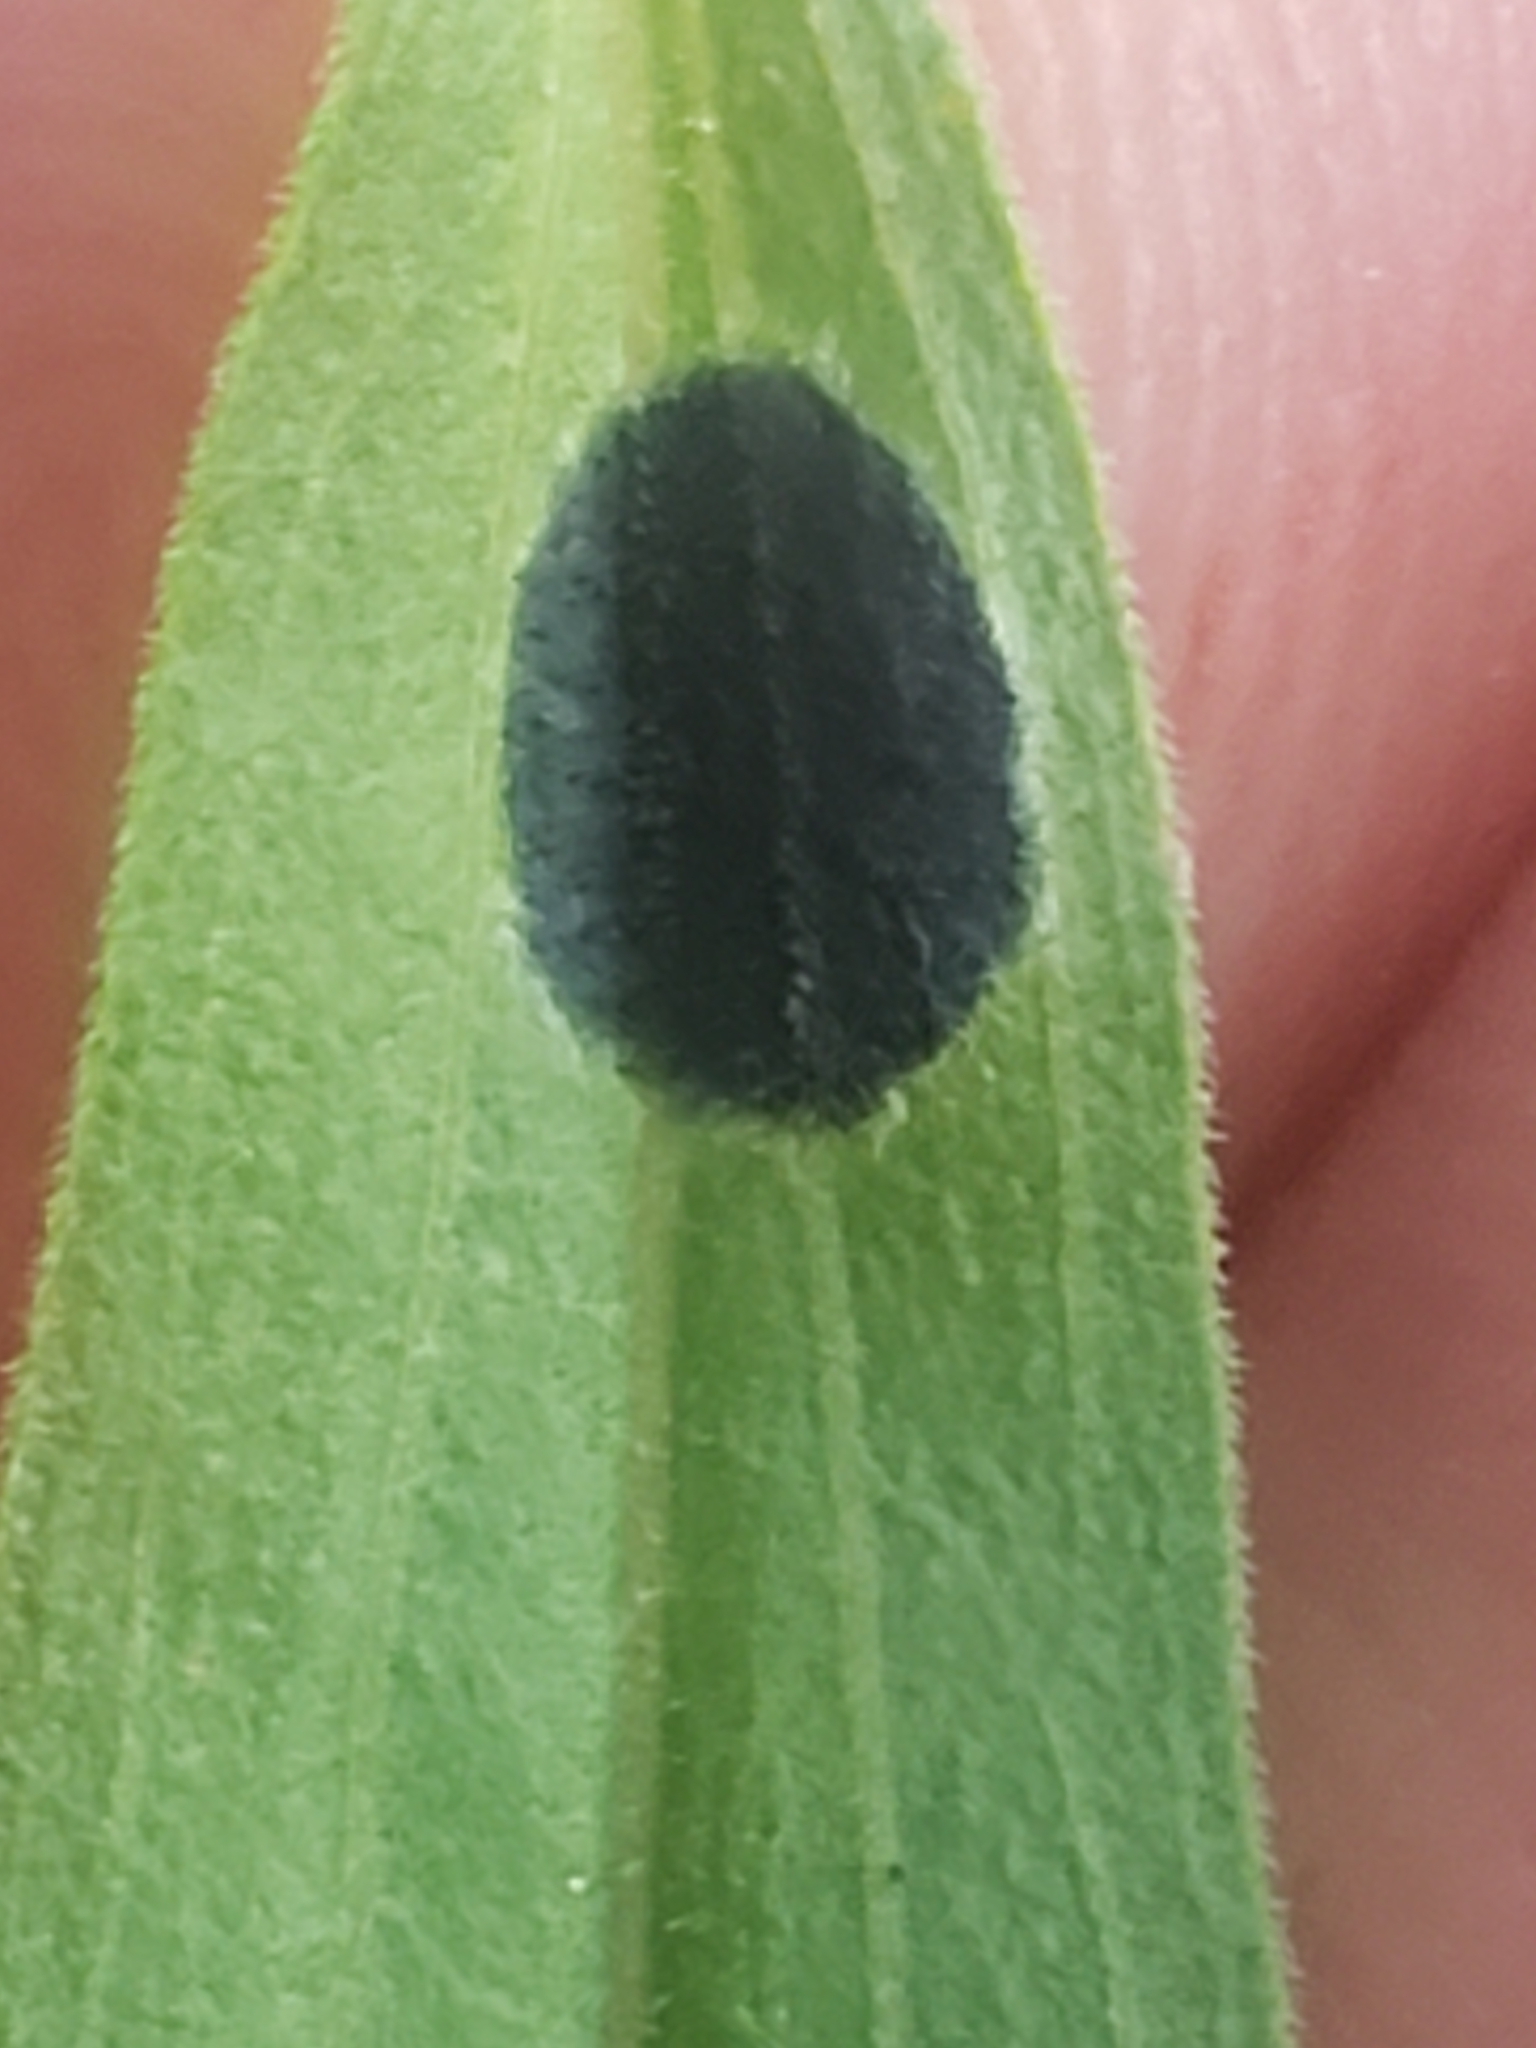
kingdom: Animalia
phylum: Arthropoda
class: Insecta
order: Diptera
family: Cecidomyiidae
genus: Asteromyia
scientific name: Asteromyia euthamiae
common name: Euthamia leaf gall midge
